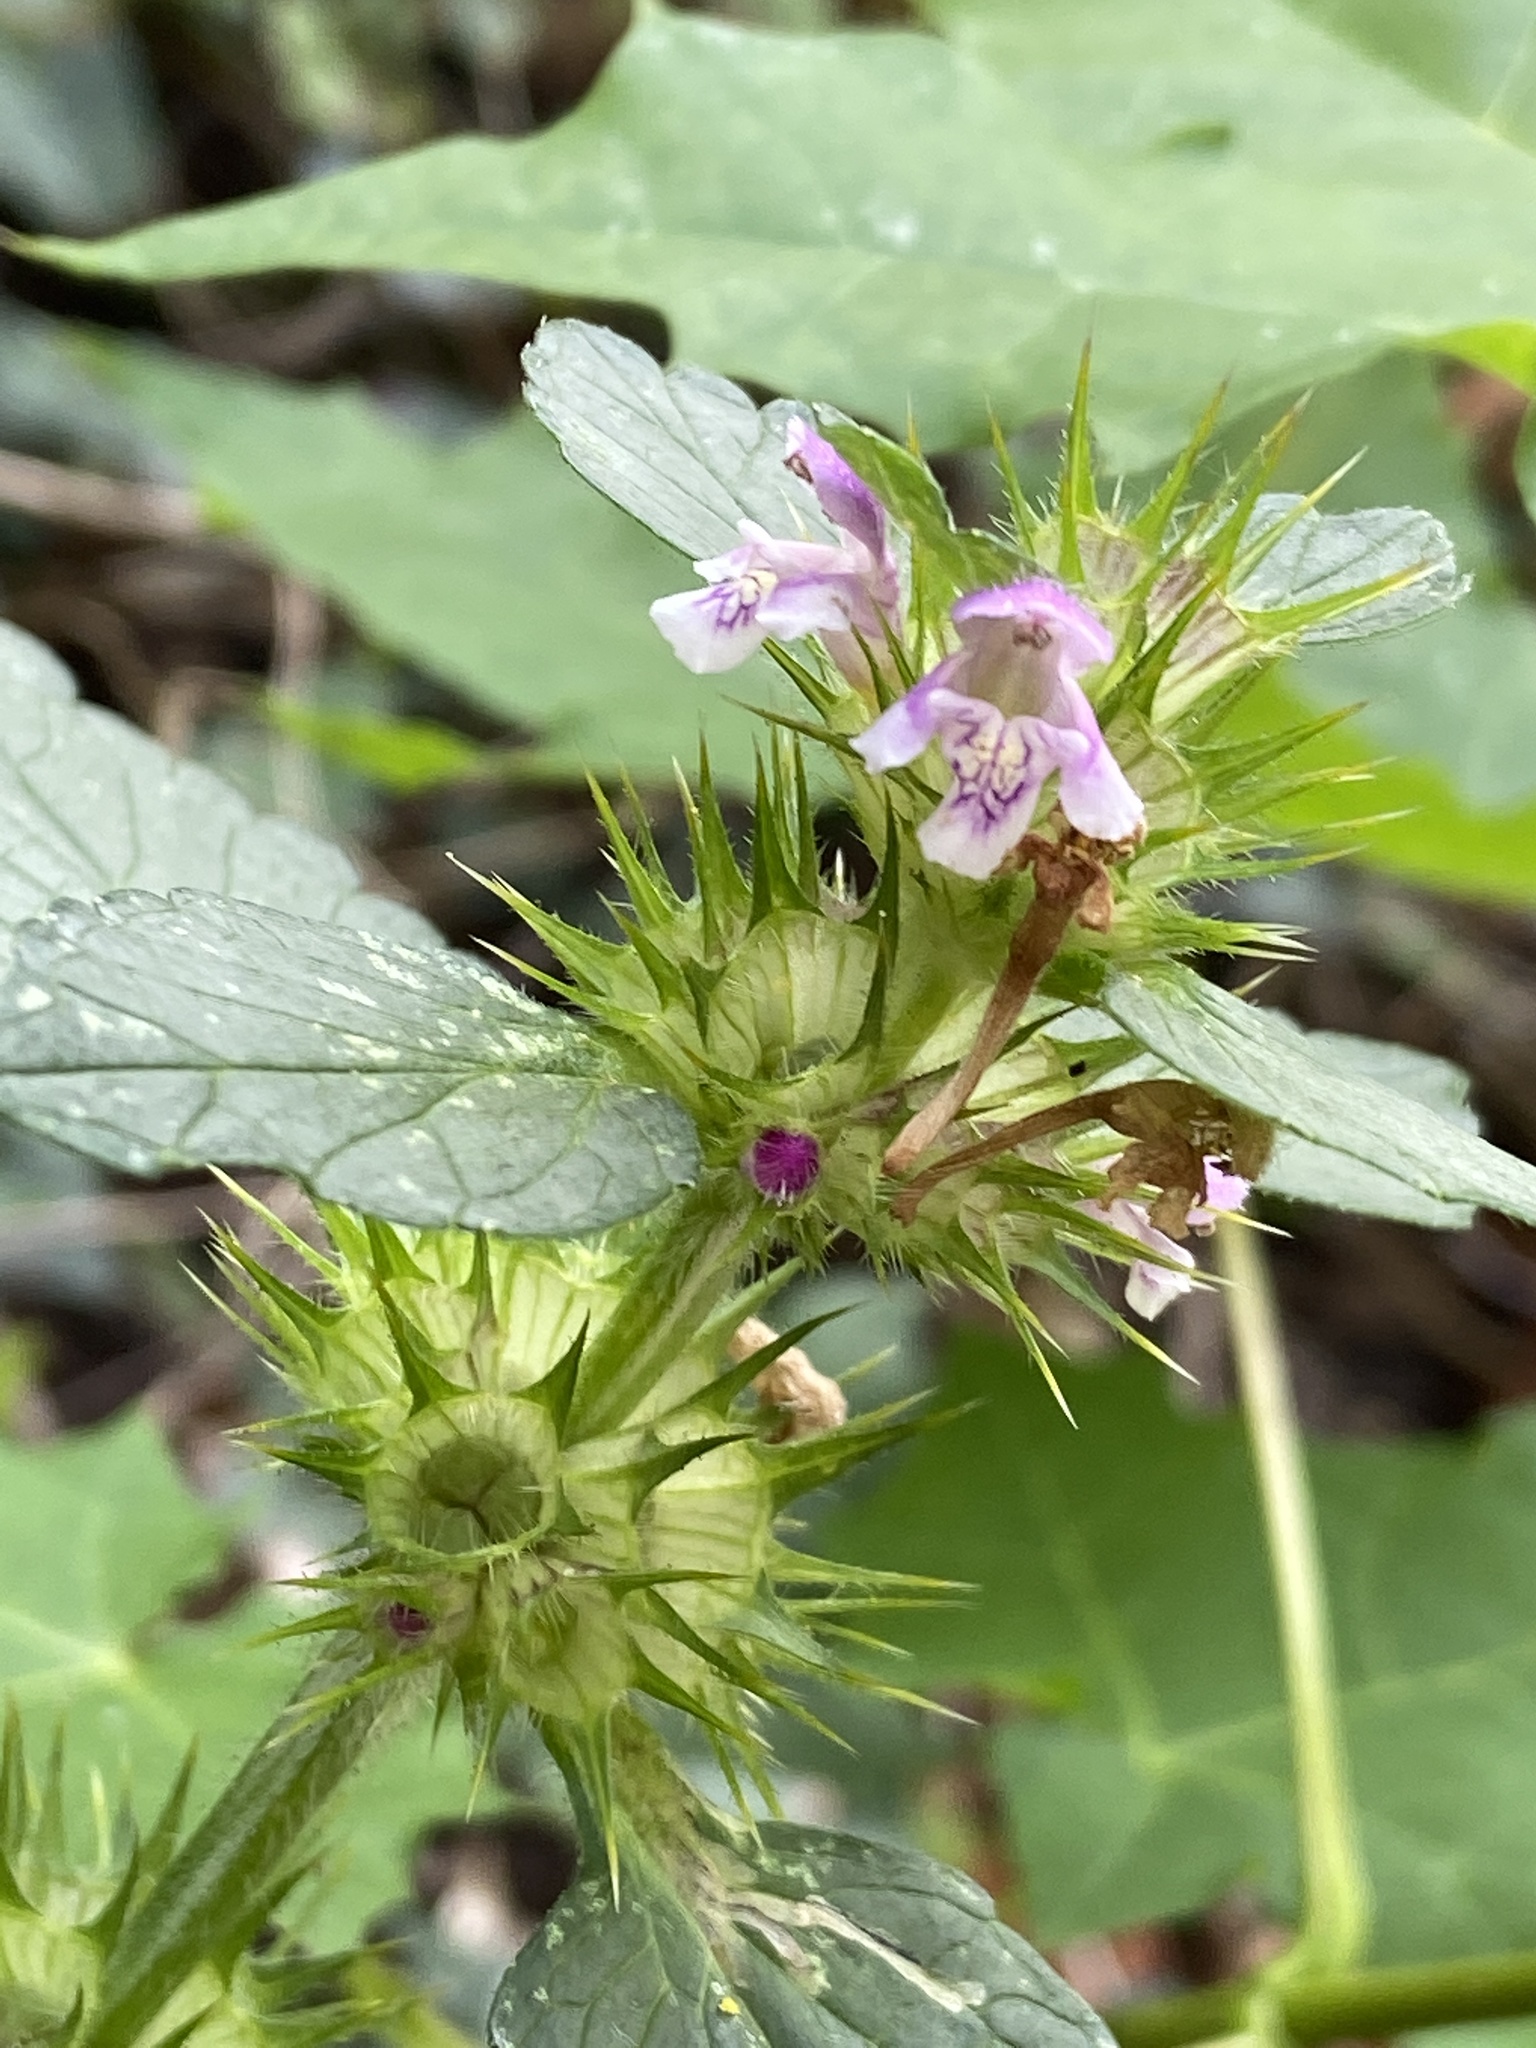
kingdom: Plantae
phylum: Tracheophyta
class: Magnoliopsida
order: Lamiales
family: Lamiaceae
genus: Galeopsis
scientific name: Galeopsis tetrahit
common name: Common hemp-nettle
